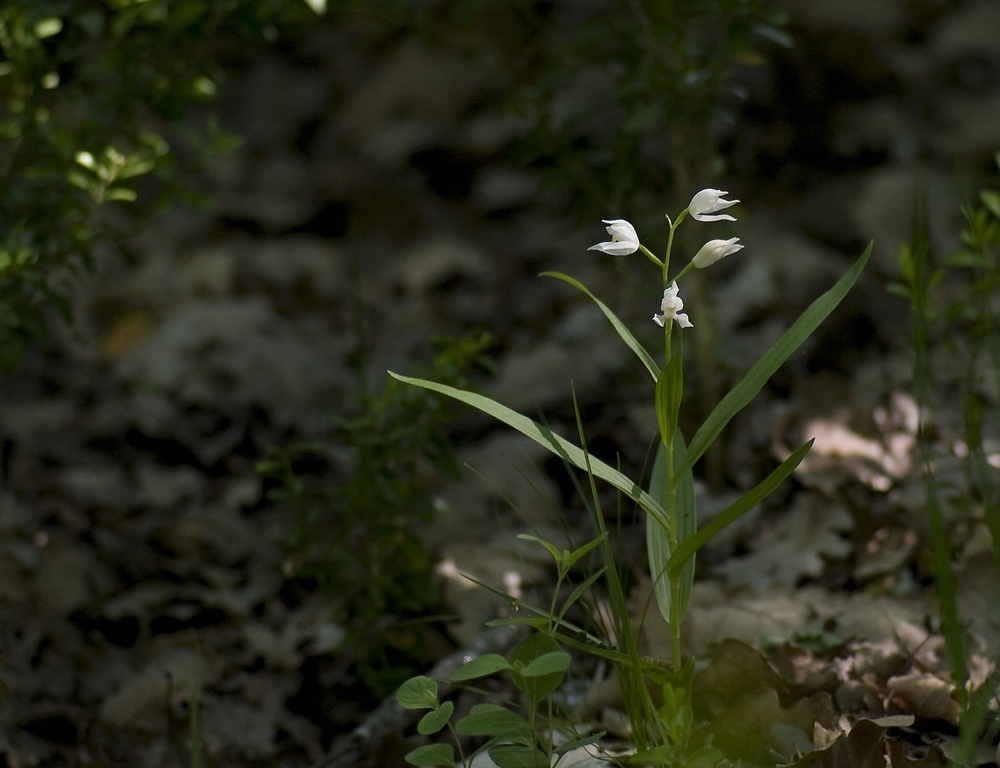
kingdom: Plantae
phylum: Tracheophyta
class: Liliopsida
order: Asparagales
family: Orchidaceae
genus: Cephalanthera
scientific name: Cephalanthera longifolia
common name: Narrow-leaved helleborine
